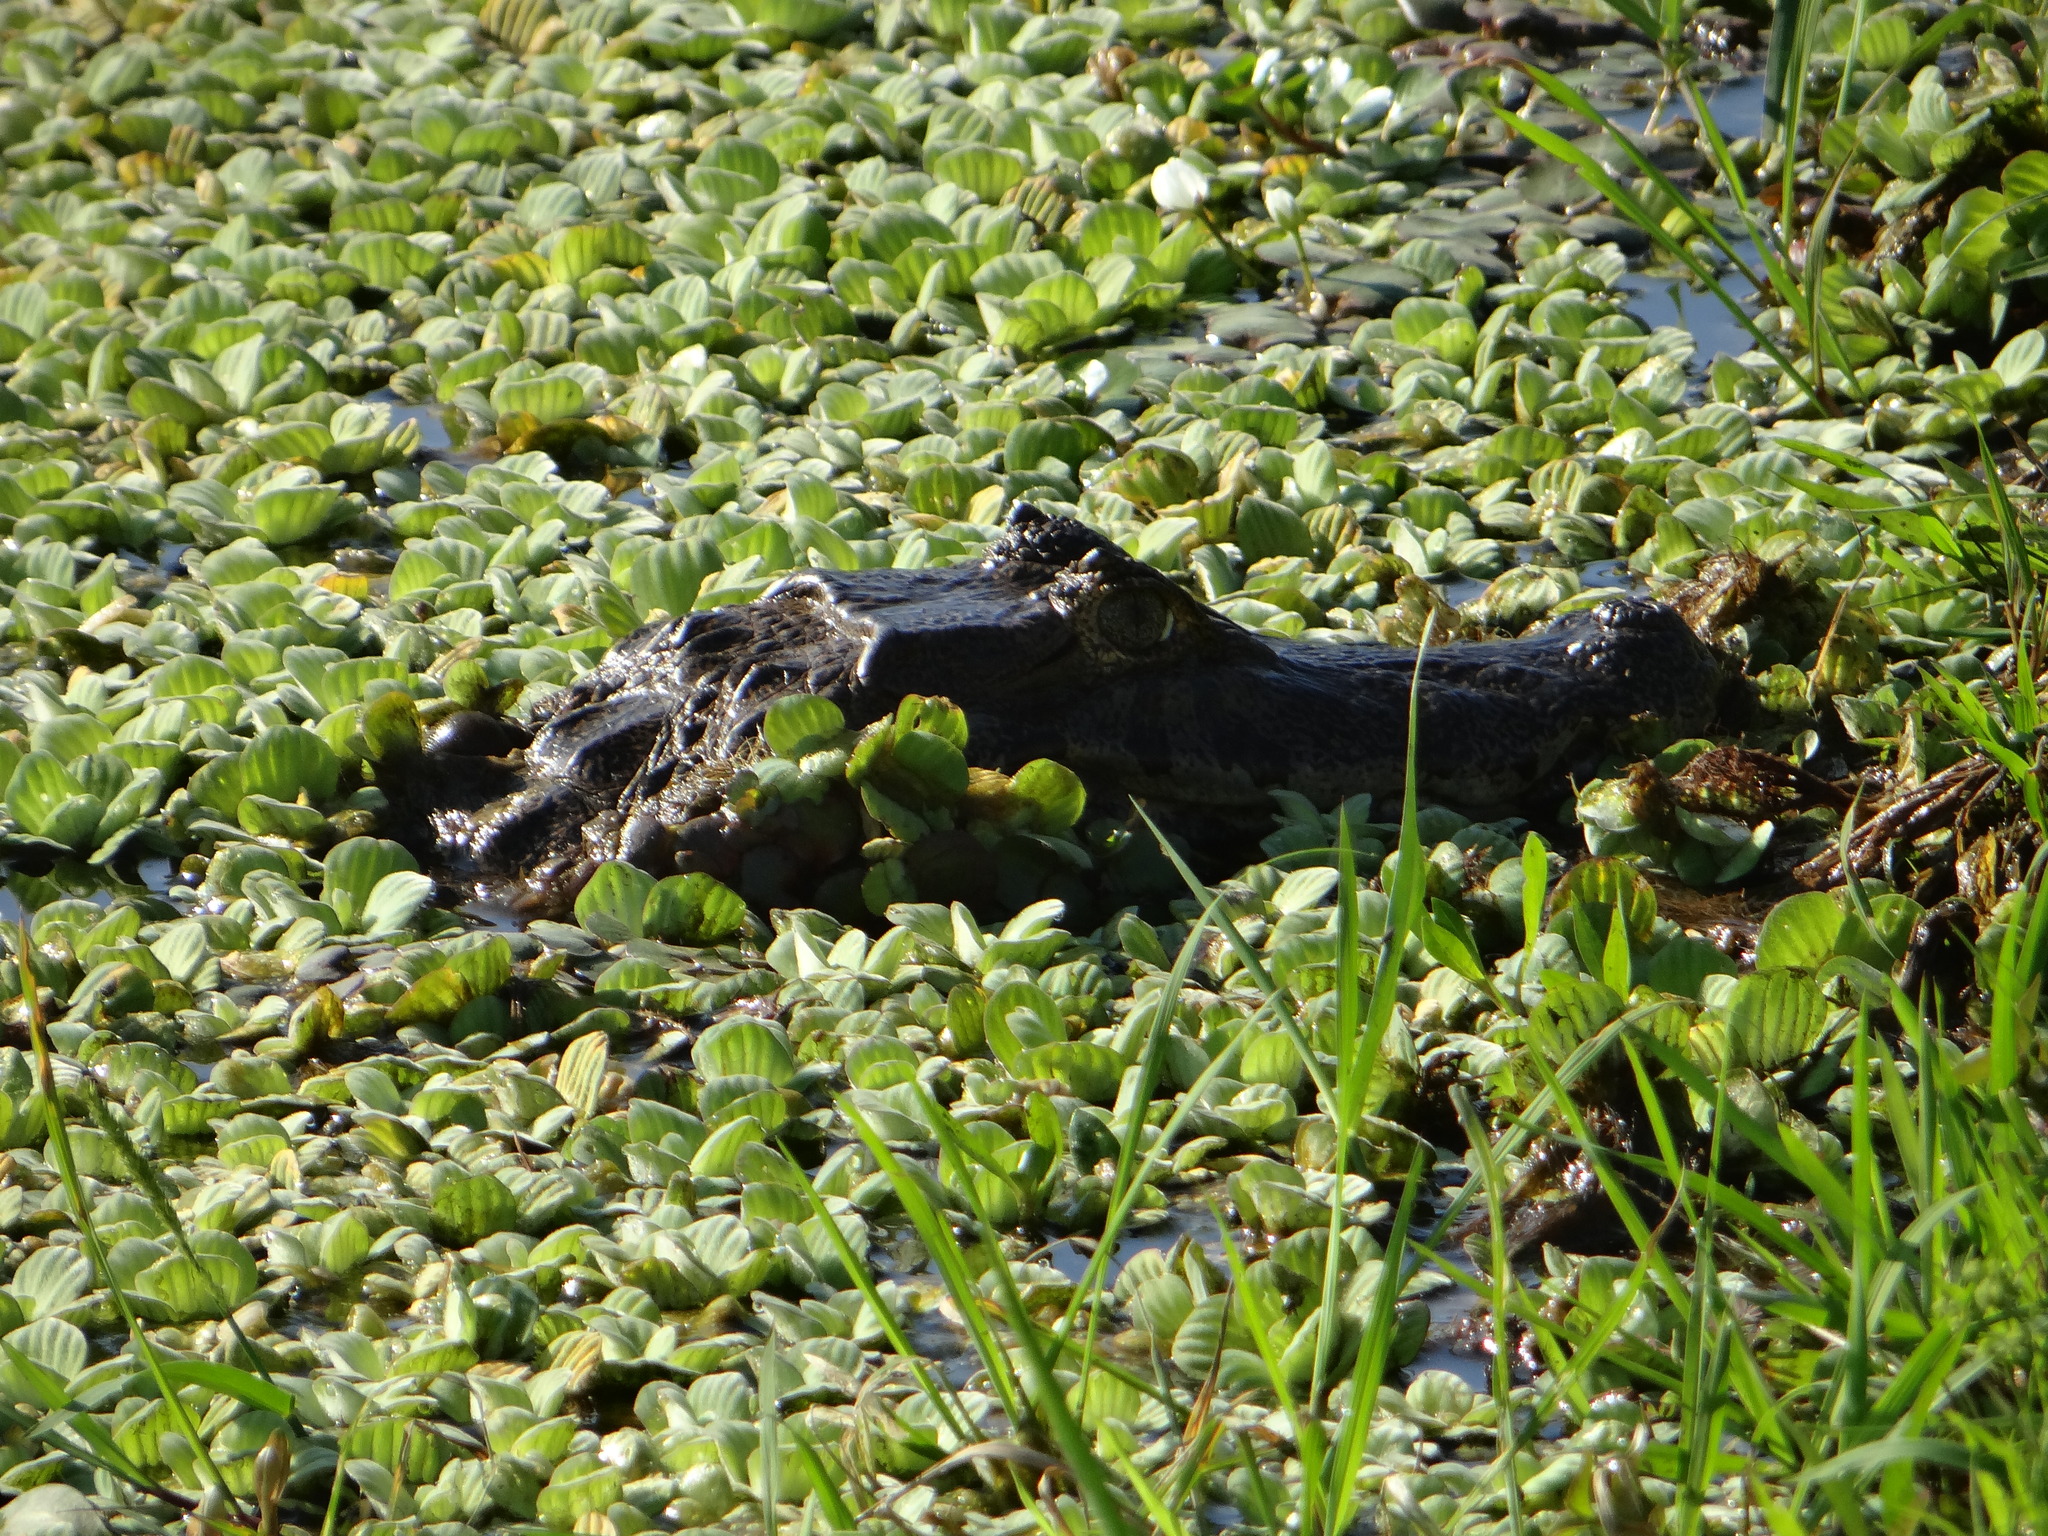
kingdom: Animalia
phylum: Chordata
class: Crocodylia
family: Alligatoridae
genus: Caiman
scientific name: Caiman yacare
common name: Yacare caiman
